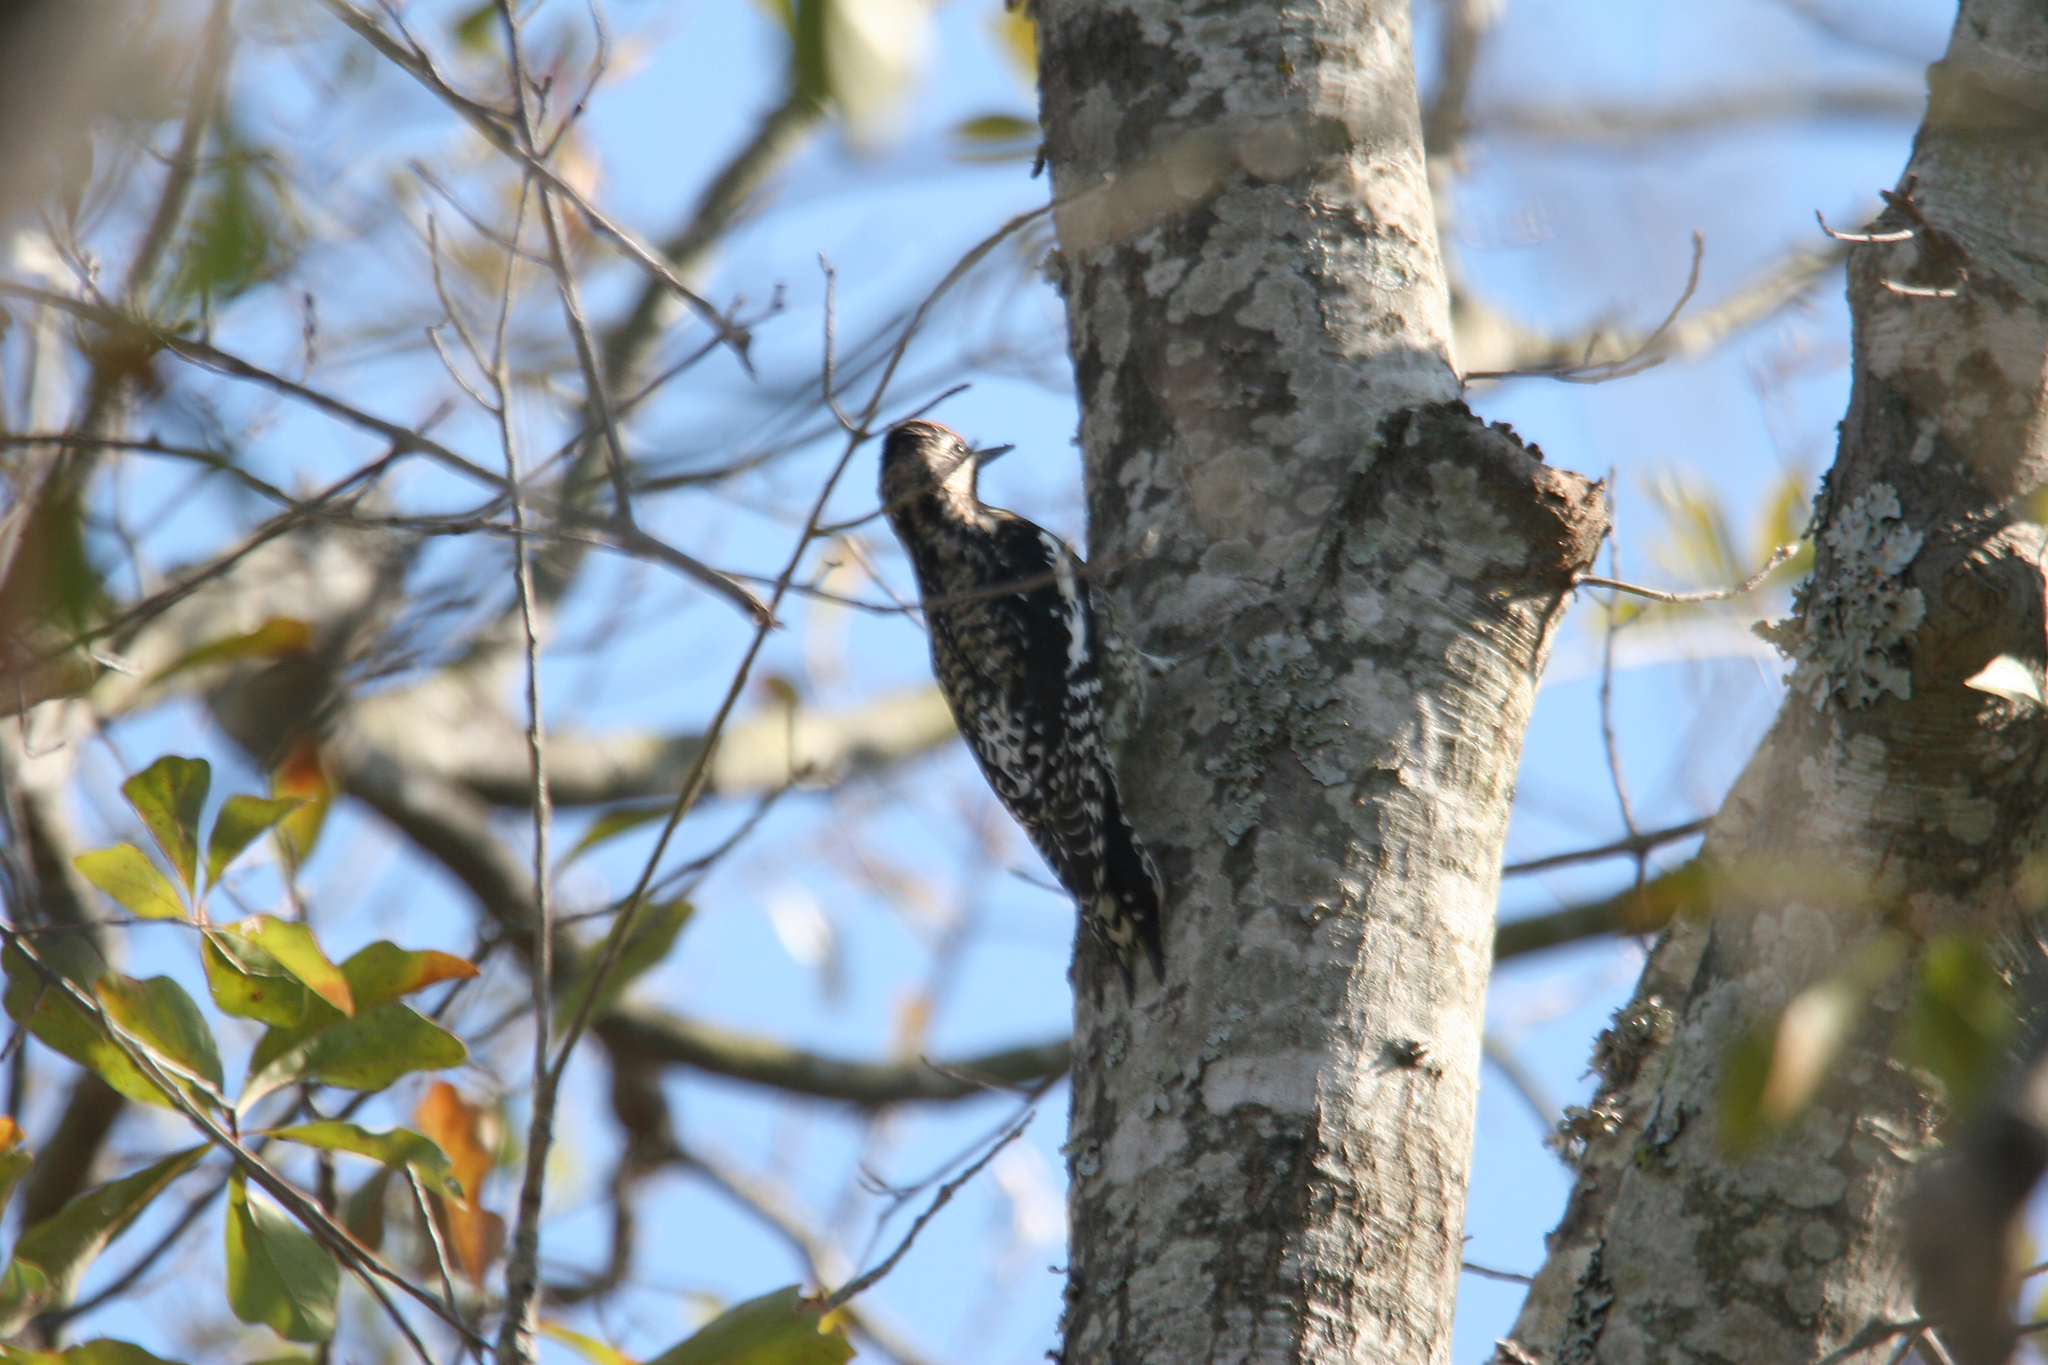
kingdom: Animalia
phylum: Chordata
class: Aves
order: Piciformes
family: Picidae
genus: Sphyrapicus
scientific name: Sphyrapicus varius
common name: Yellow-bellied sapsucker
